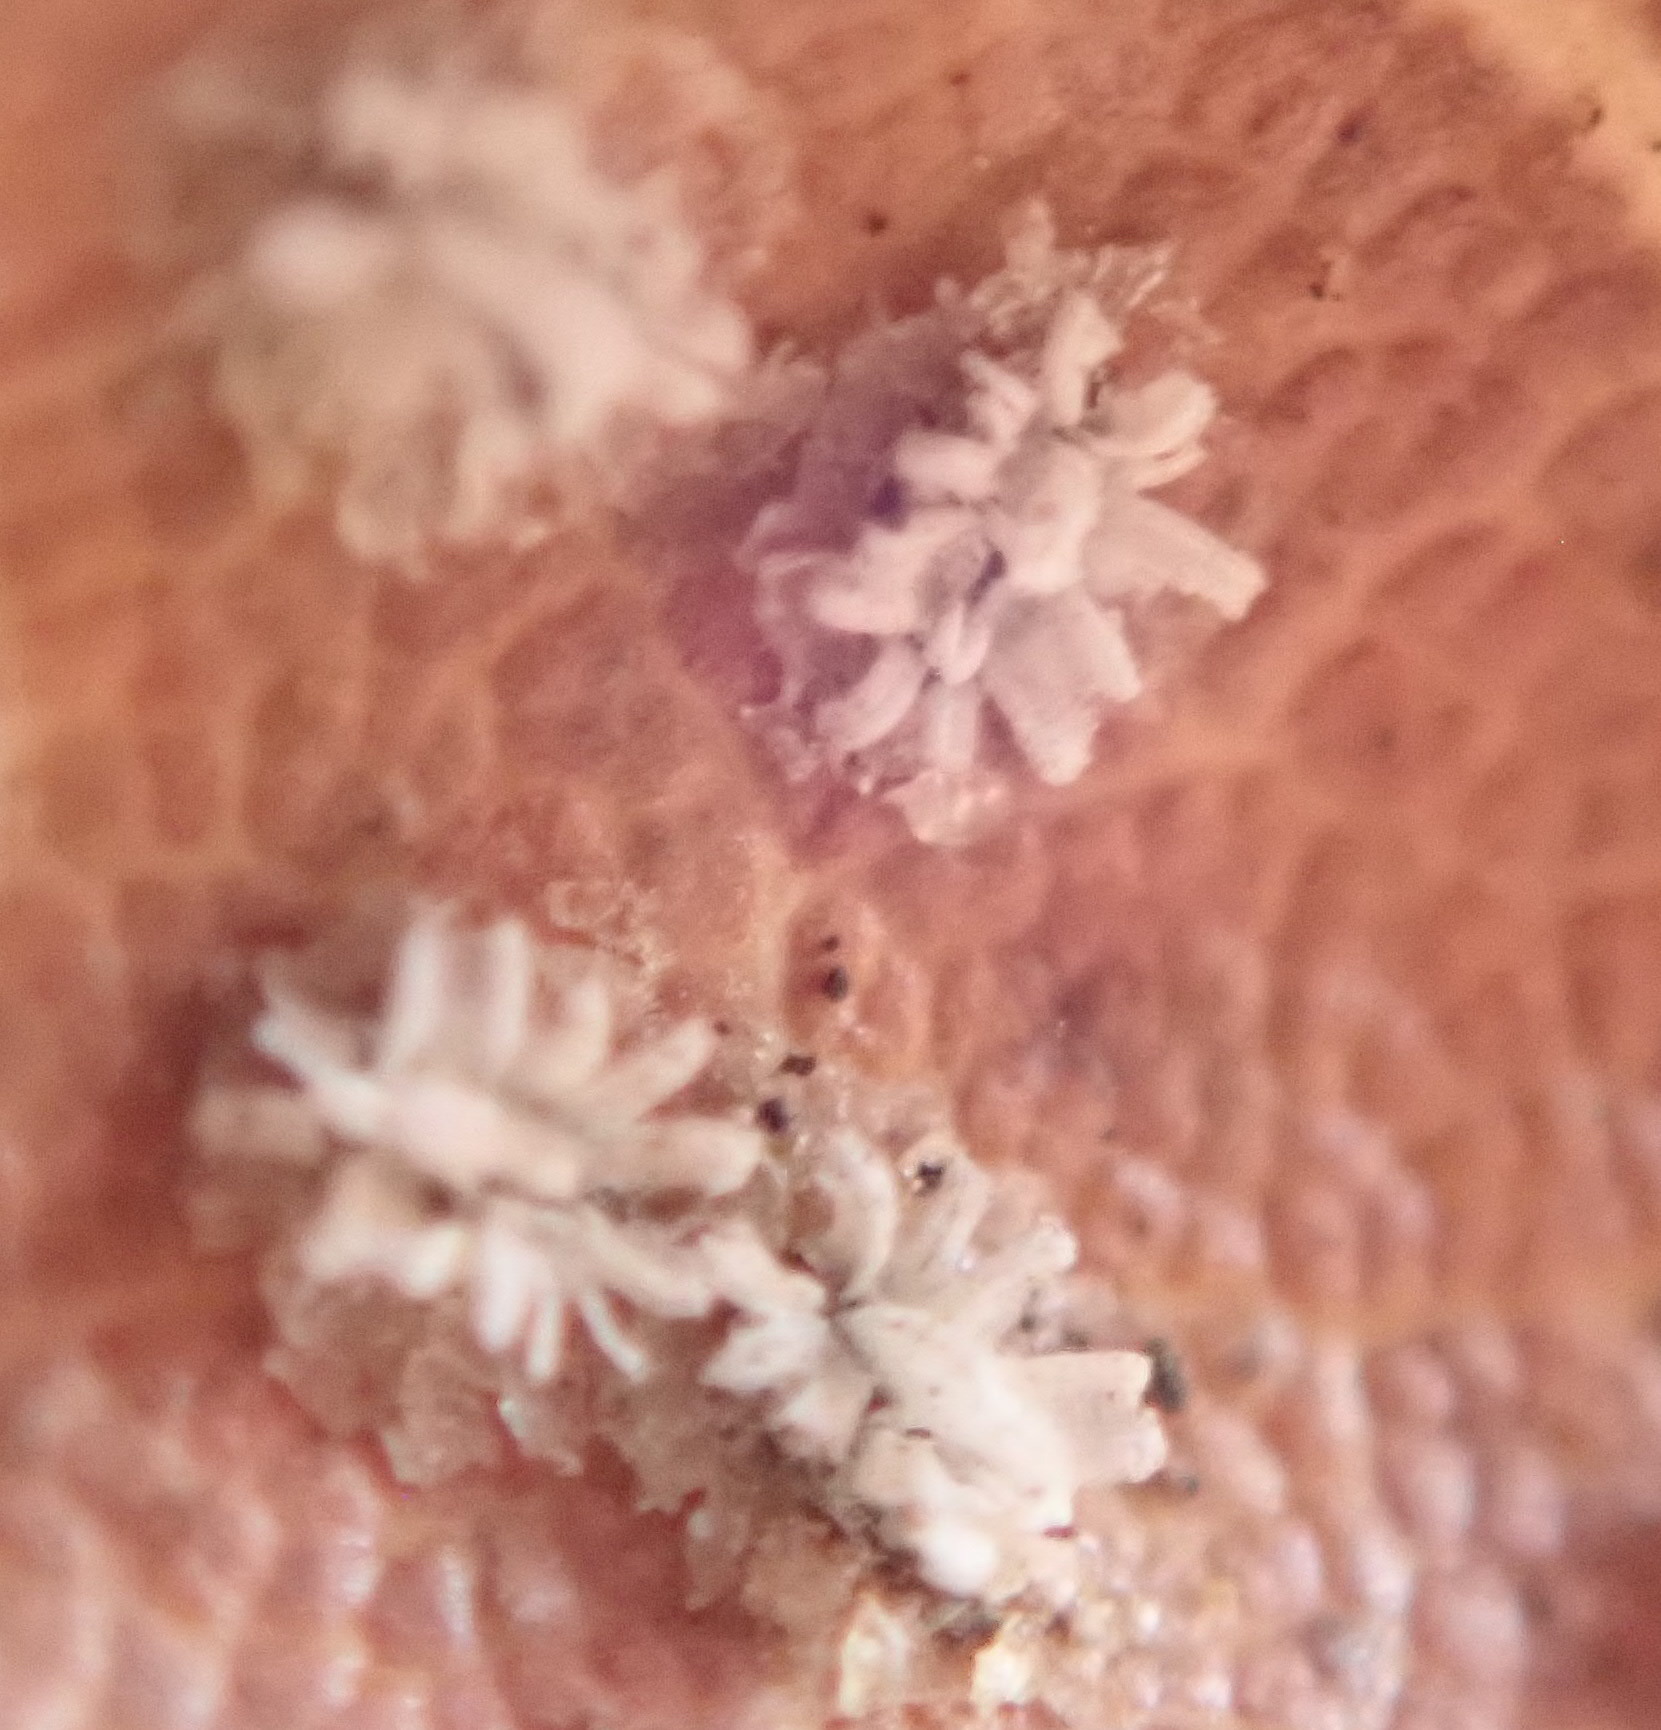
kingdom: Animalia
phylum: Arthropoda
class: Insecta
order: Hemiptera
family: Aleyrodidae
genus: Aleuroplatus
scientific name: Aleuroplatus coronata
